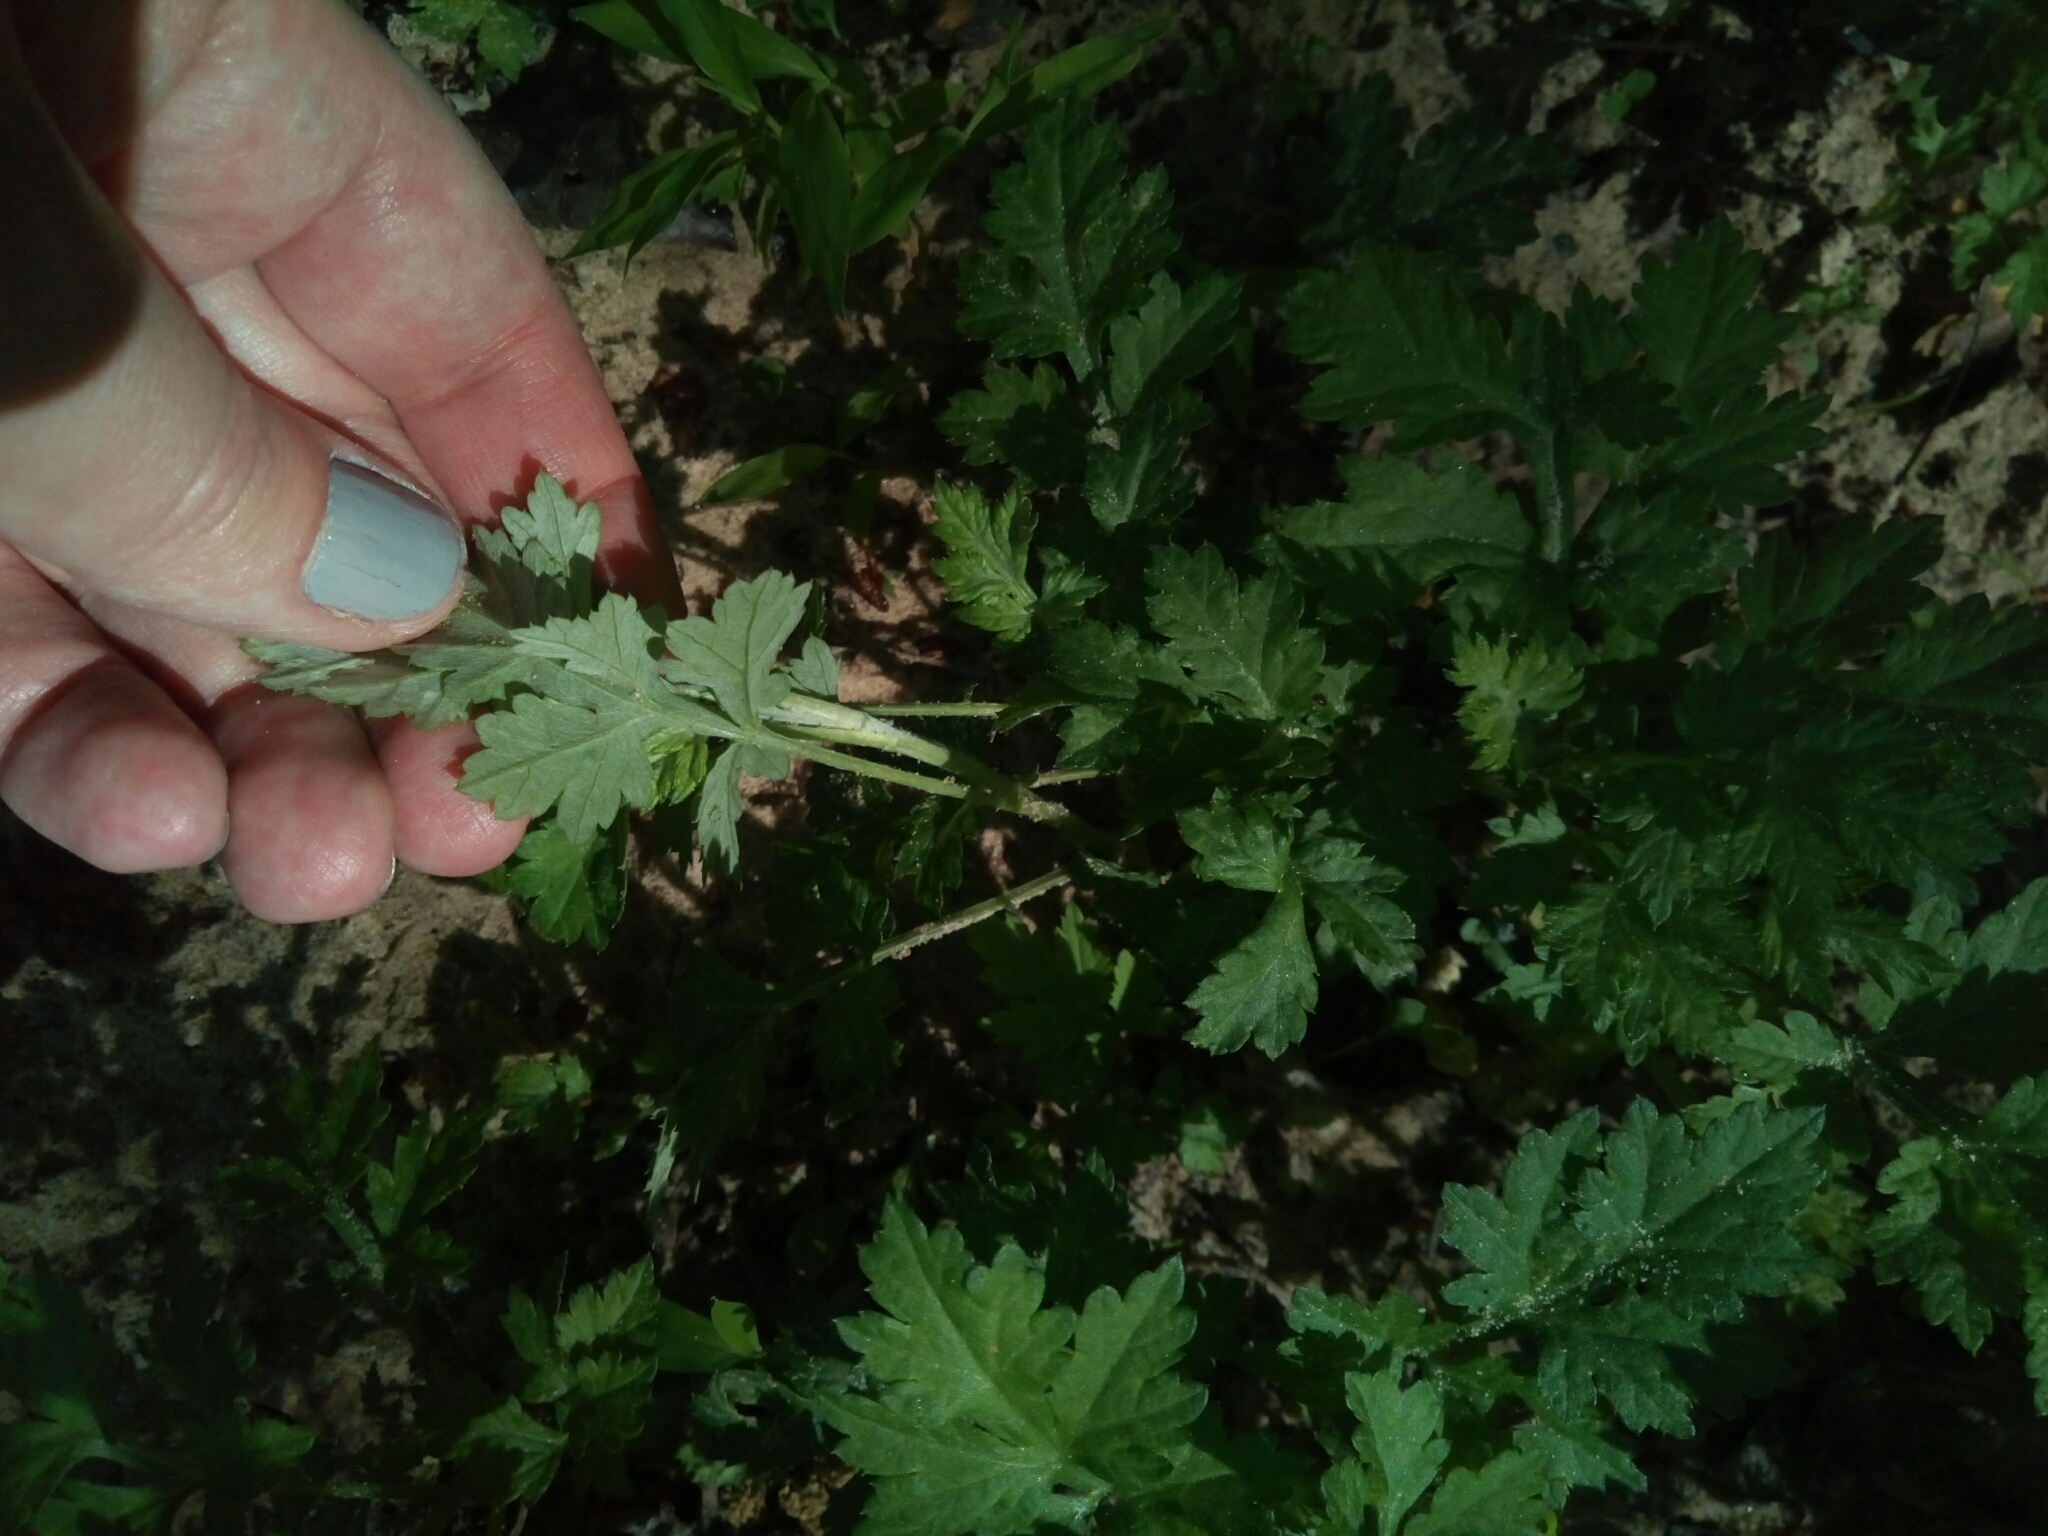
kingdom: Plantae
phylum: Tracheophyta
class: Magnoliopsida
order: Asterales
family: Asteraceae
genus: Artemisia
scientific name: Artemisia vulgaris
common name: Mugwort
